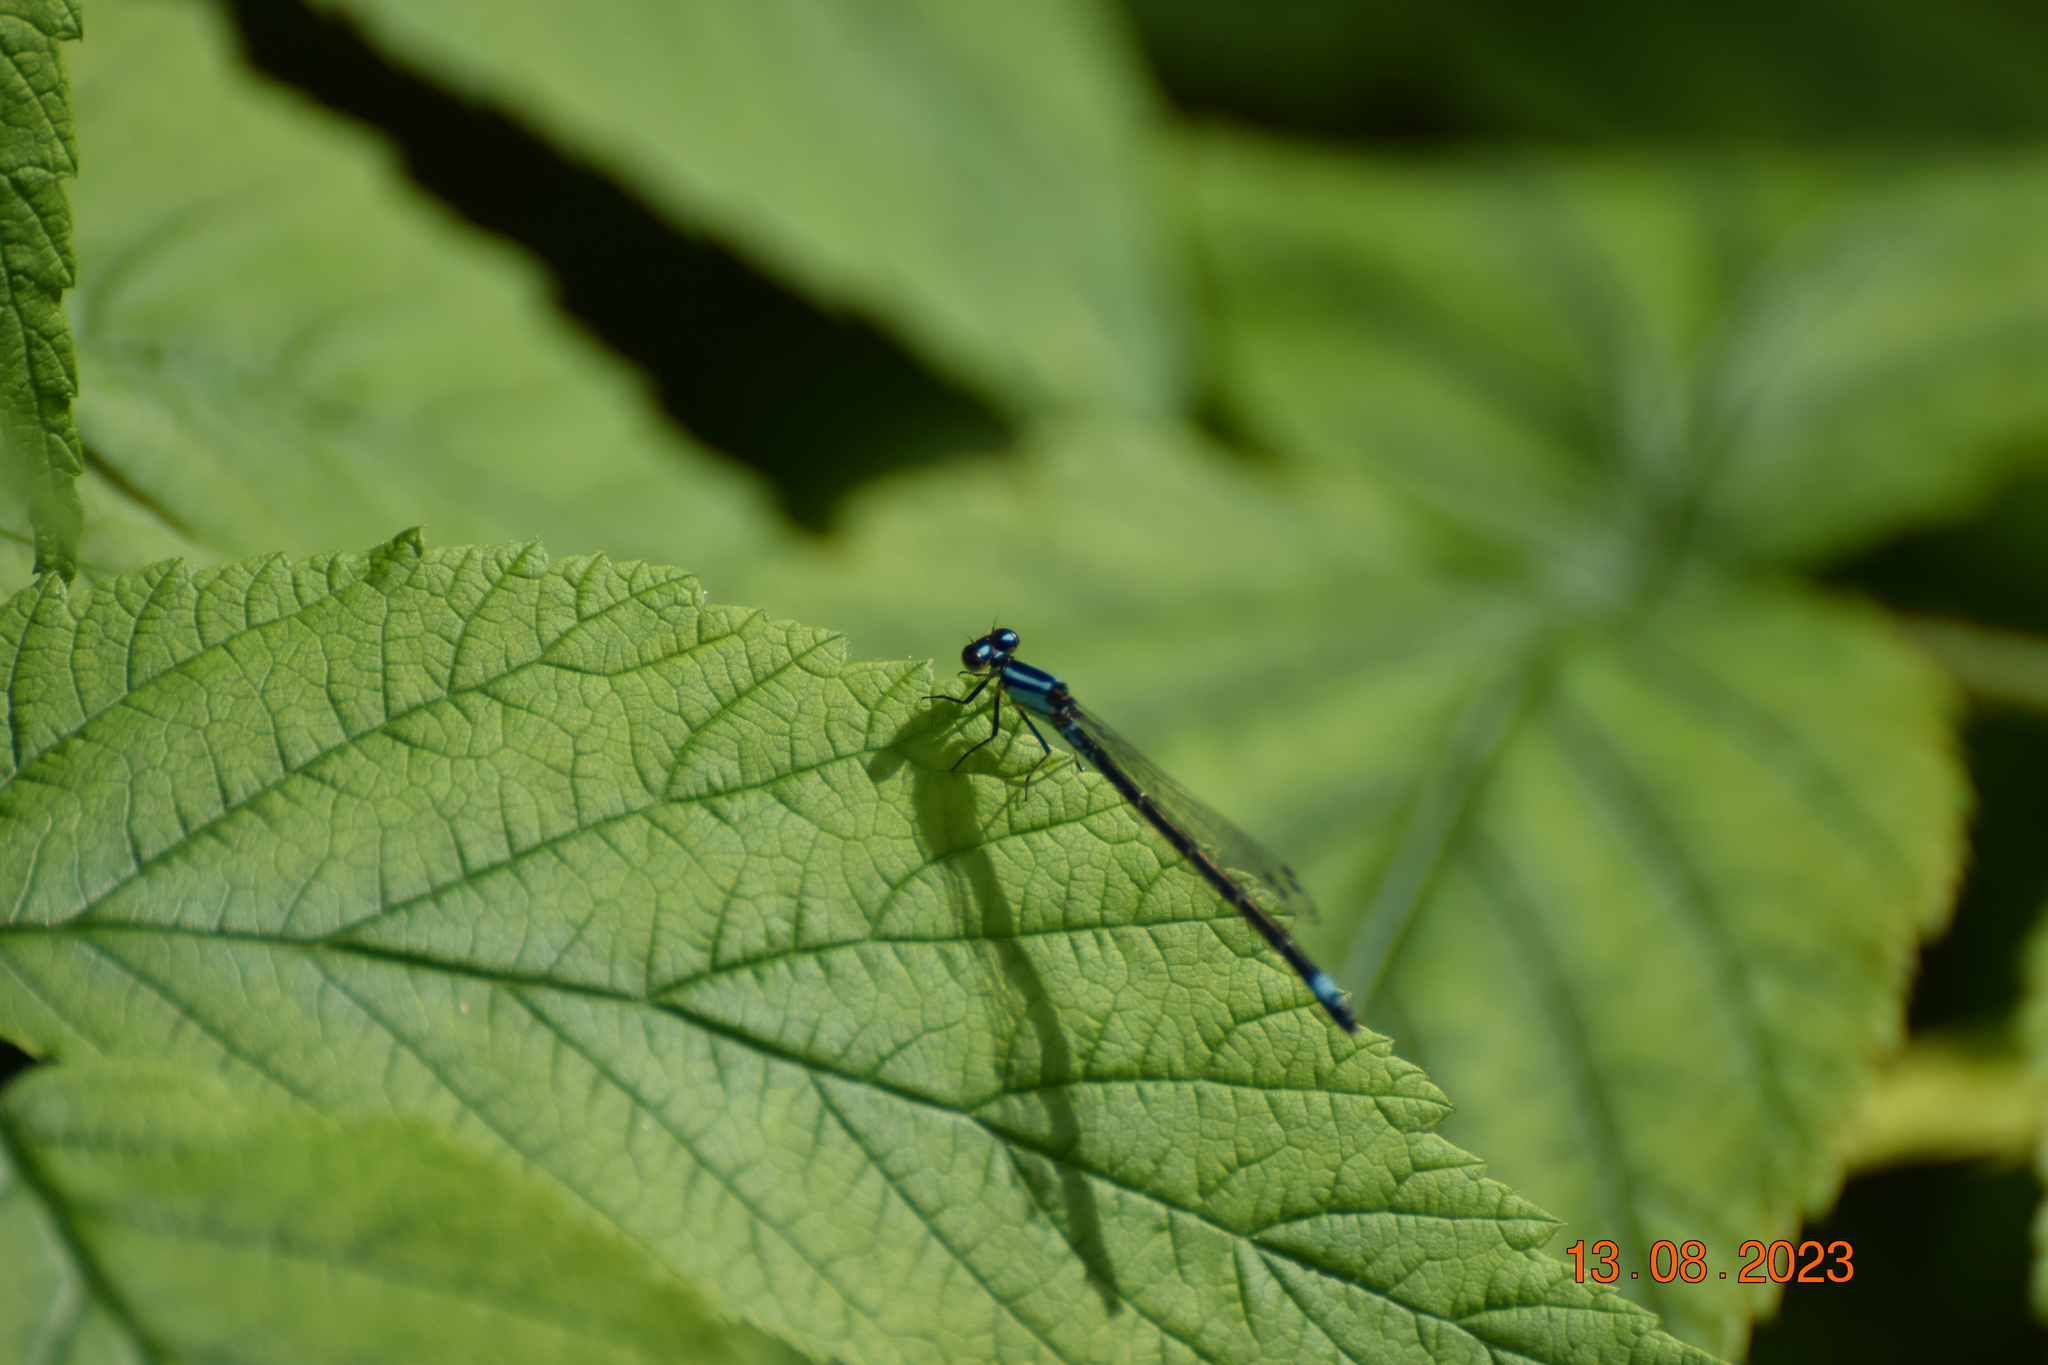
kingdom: Animalia
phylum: Arthropoda
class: Insecta
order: Odonata
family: Coenagrionidae
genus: Enallagma
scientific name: Enallagma geminatum
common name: Skimming bluet
